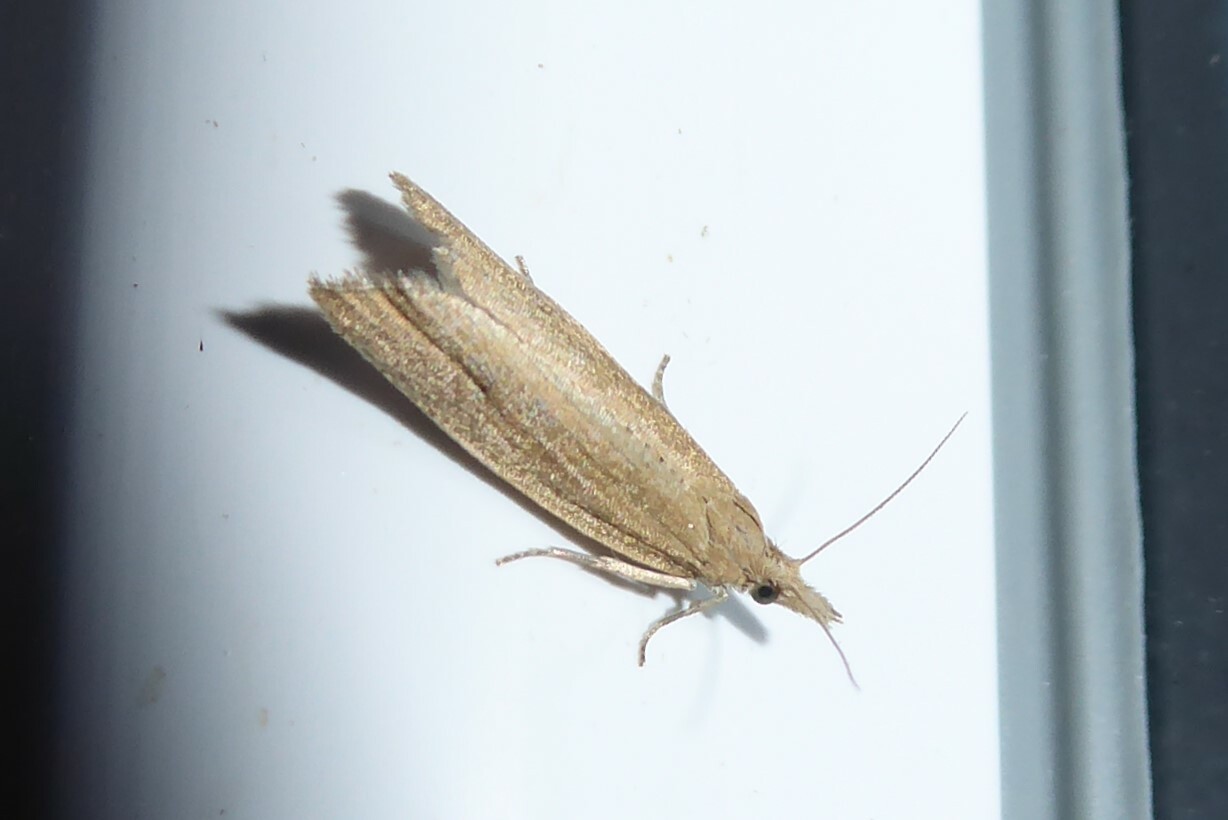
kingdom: Animalia
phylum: Arthropoda
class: Insecta
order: Lepidoptera
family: Tortricidae
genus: Bactra
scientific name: Bactra noteraula
